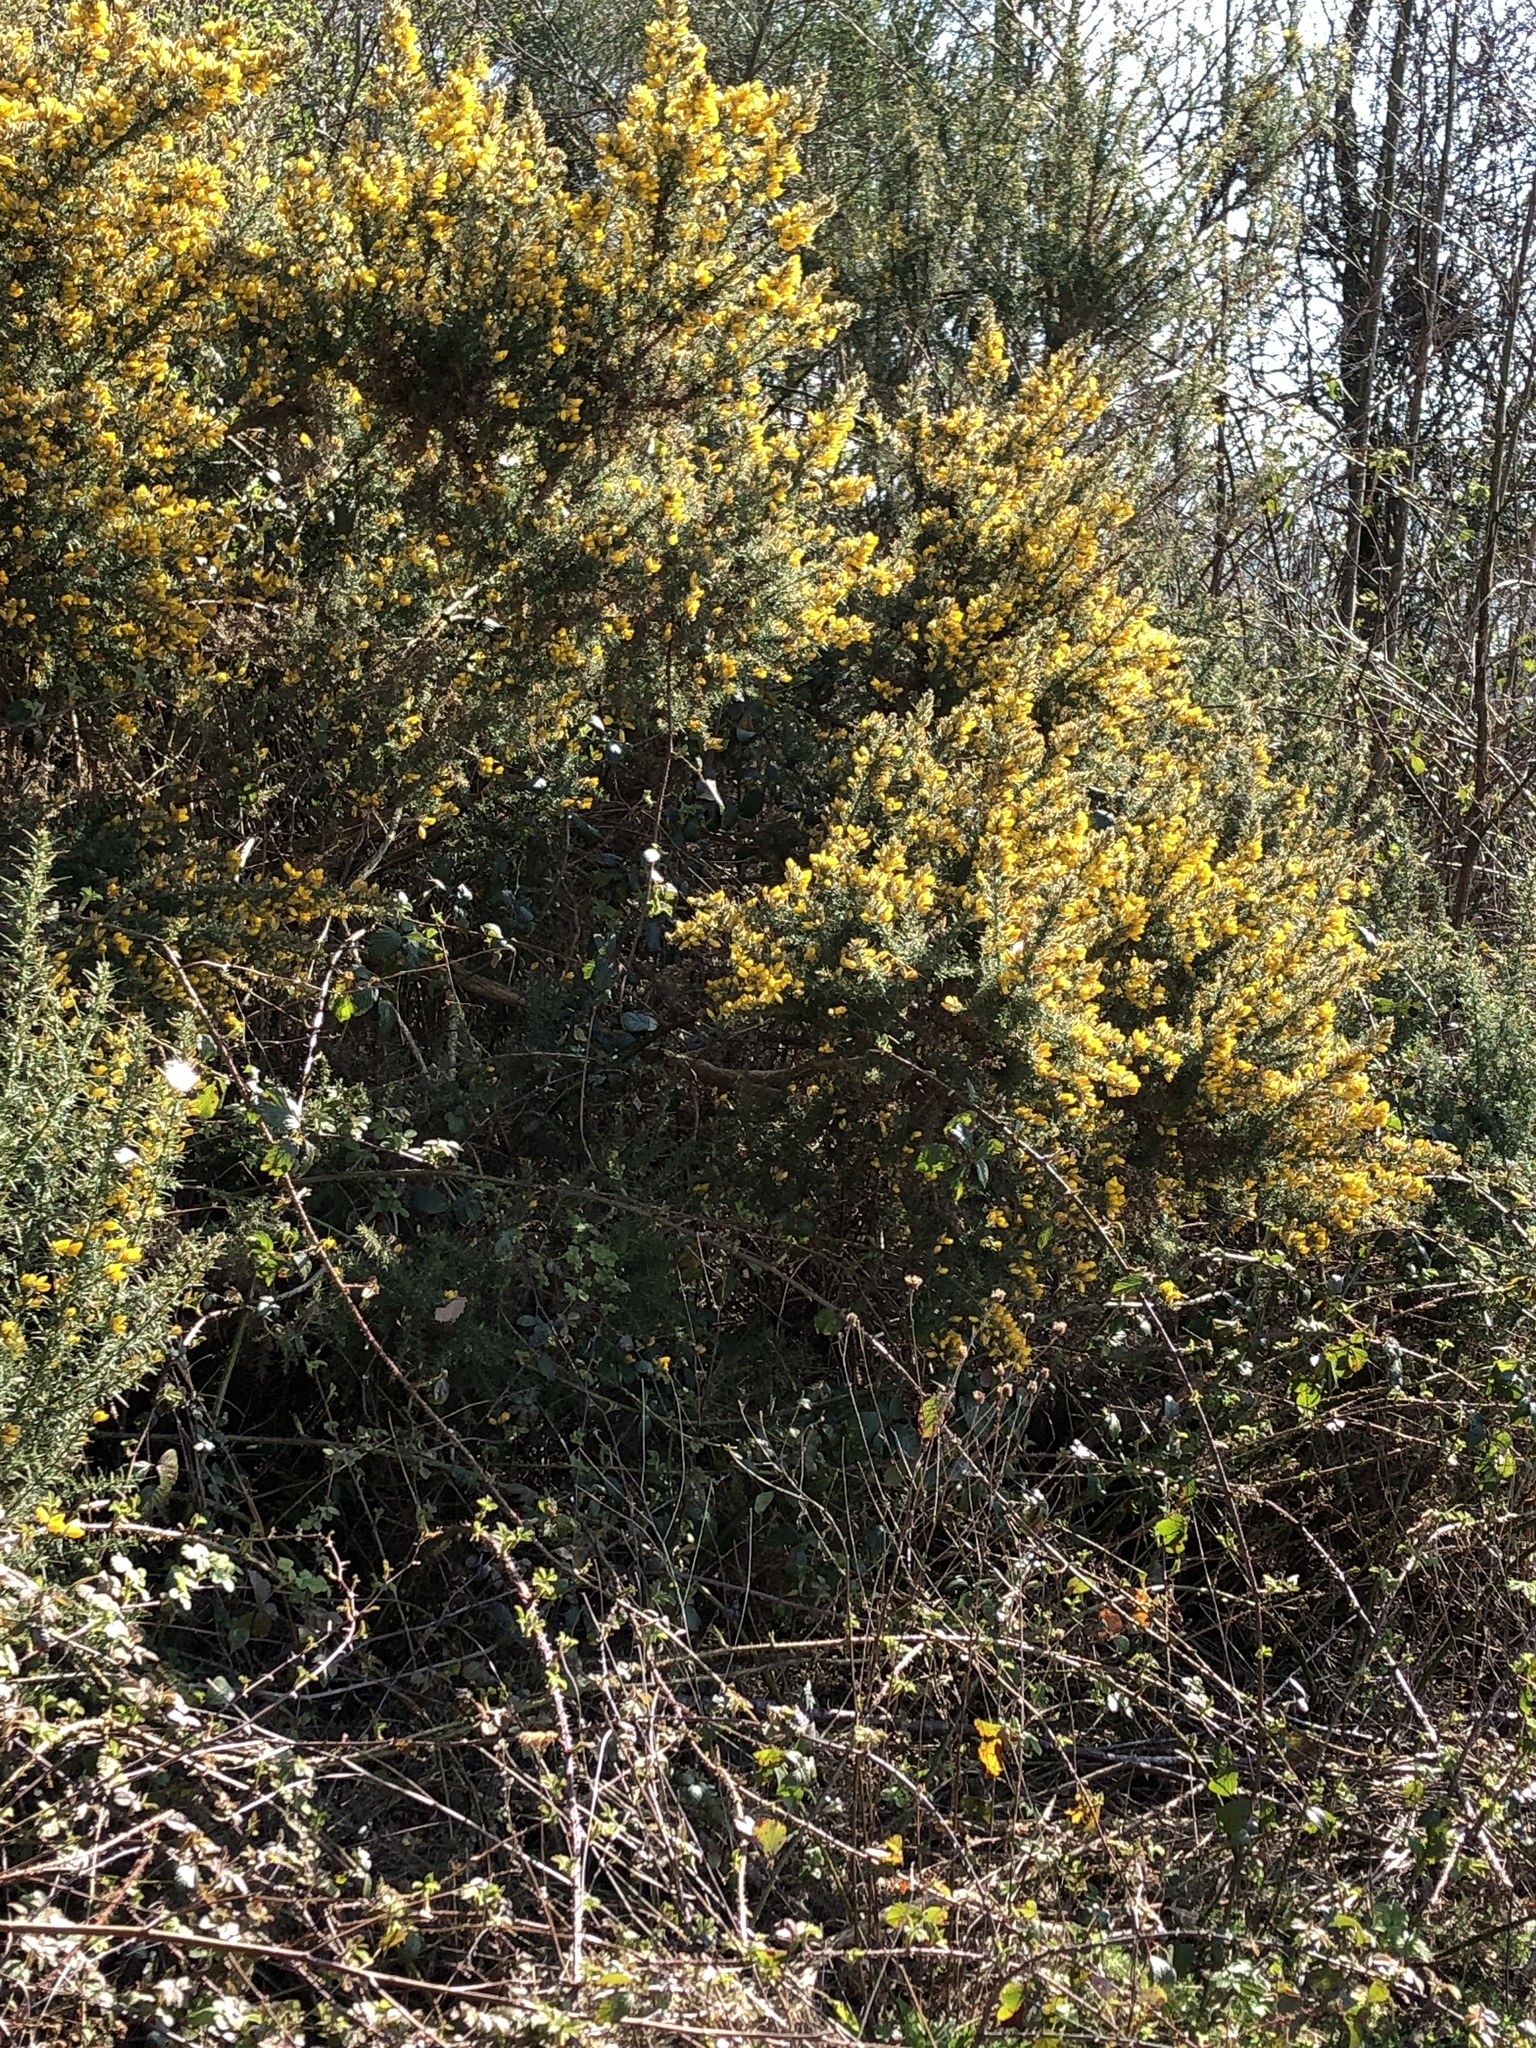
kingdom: Plantae
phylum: Tracheophyta
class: Magnoliopsida
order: Fabales
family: Fabaceae
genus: Ulex
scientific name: Ulex europaeus
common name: Common gorse
